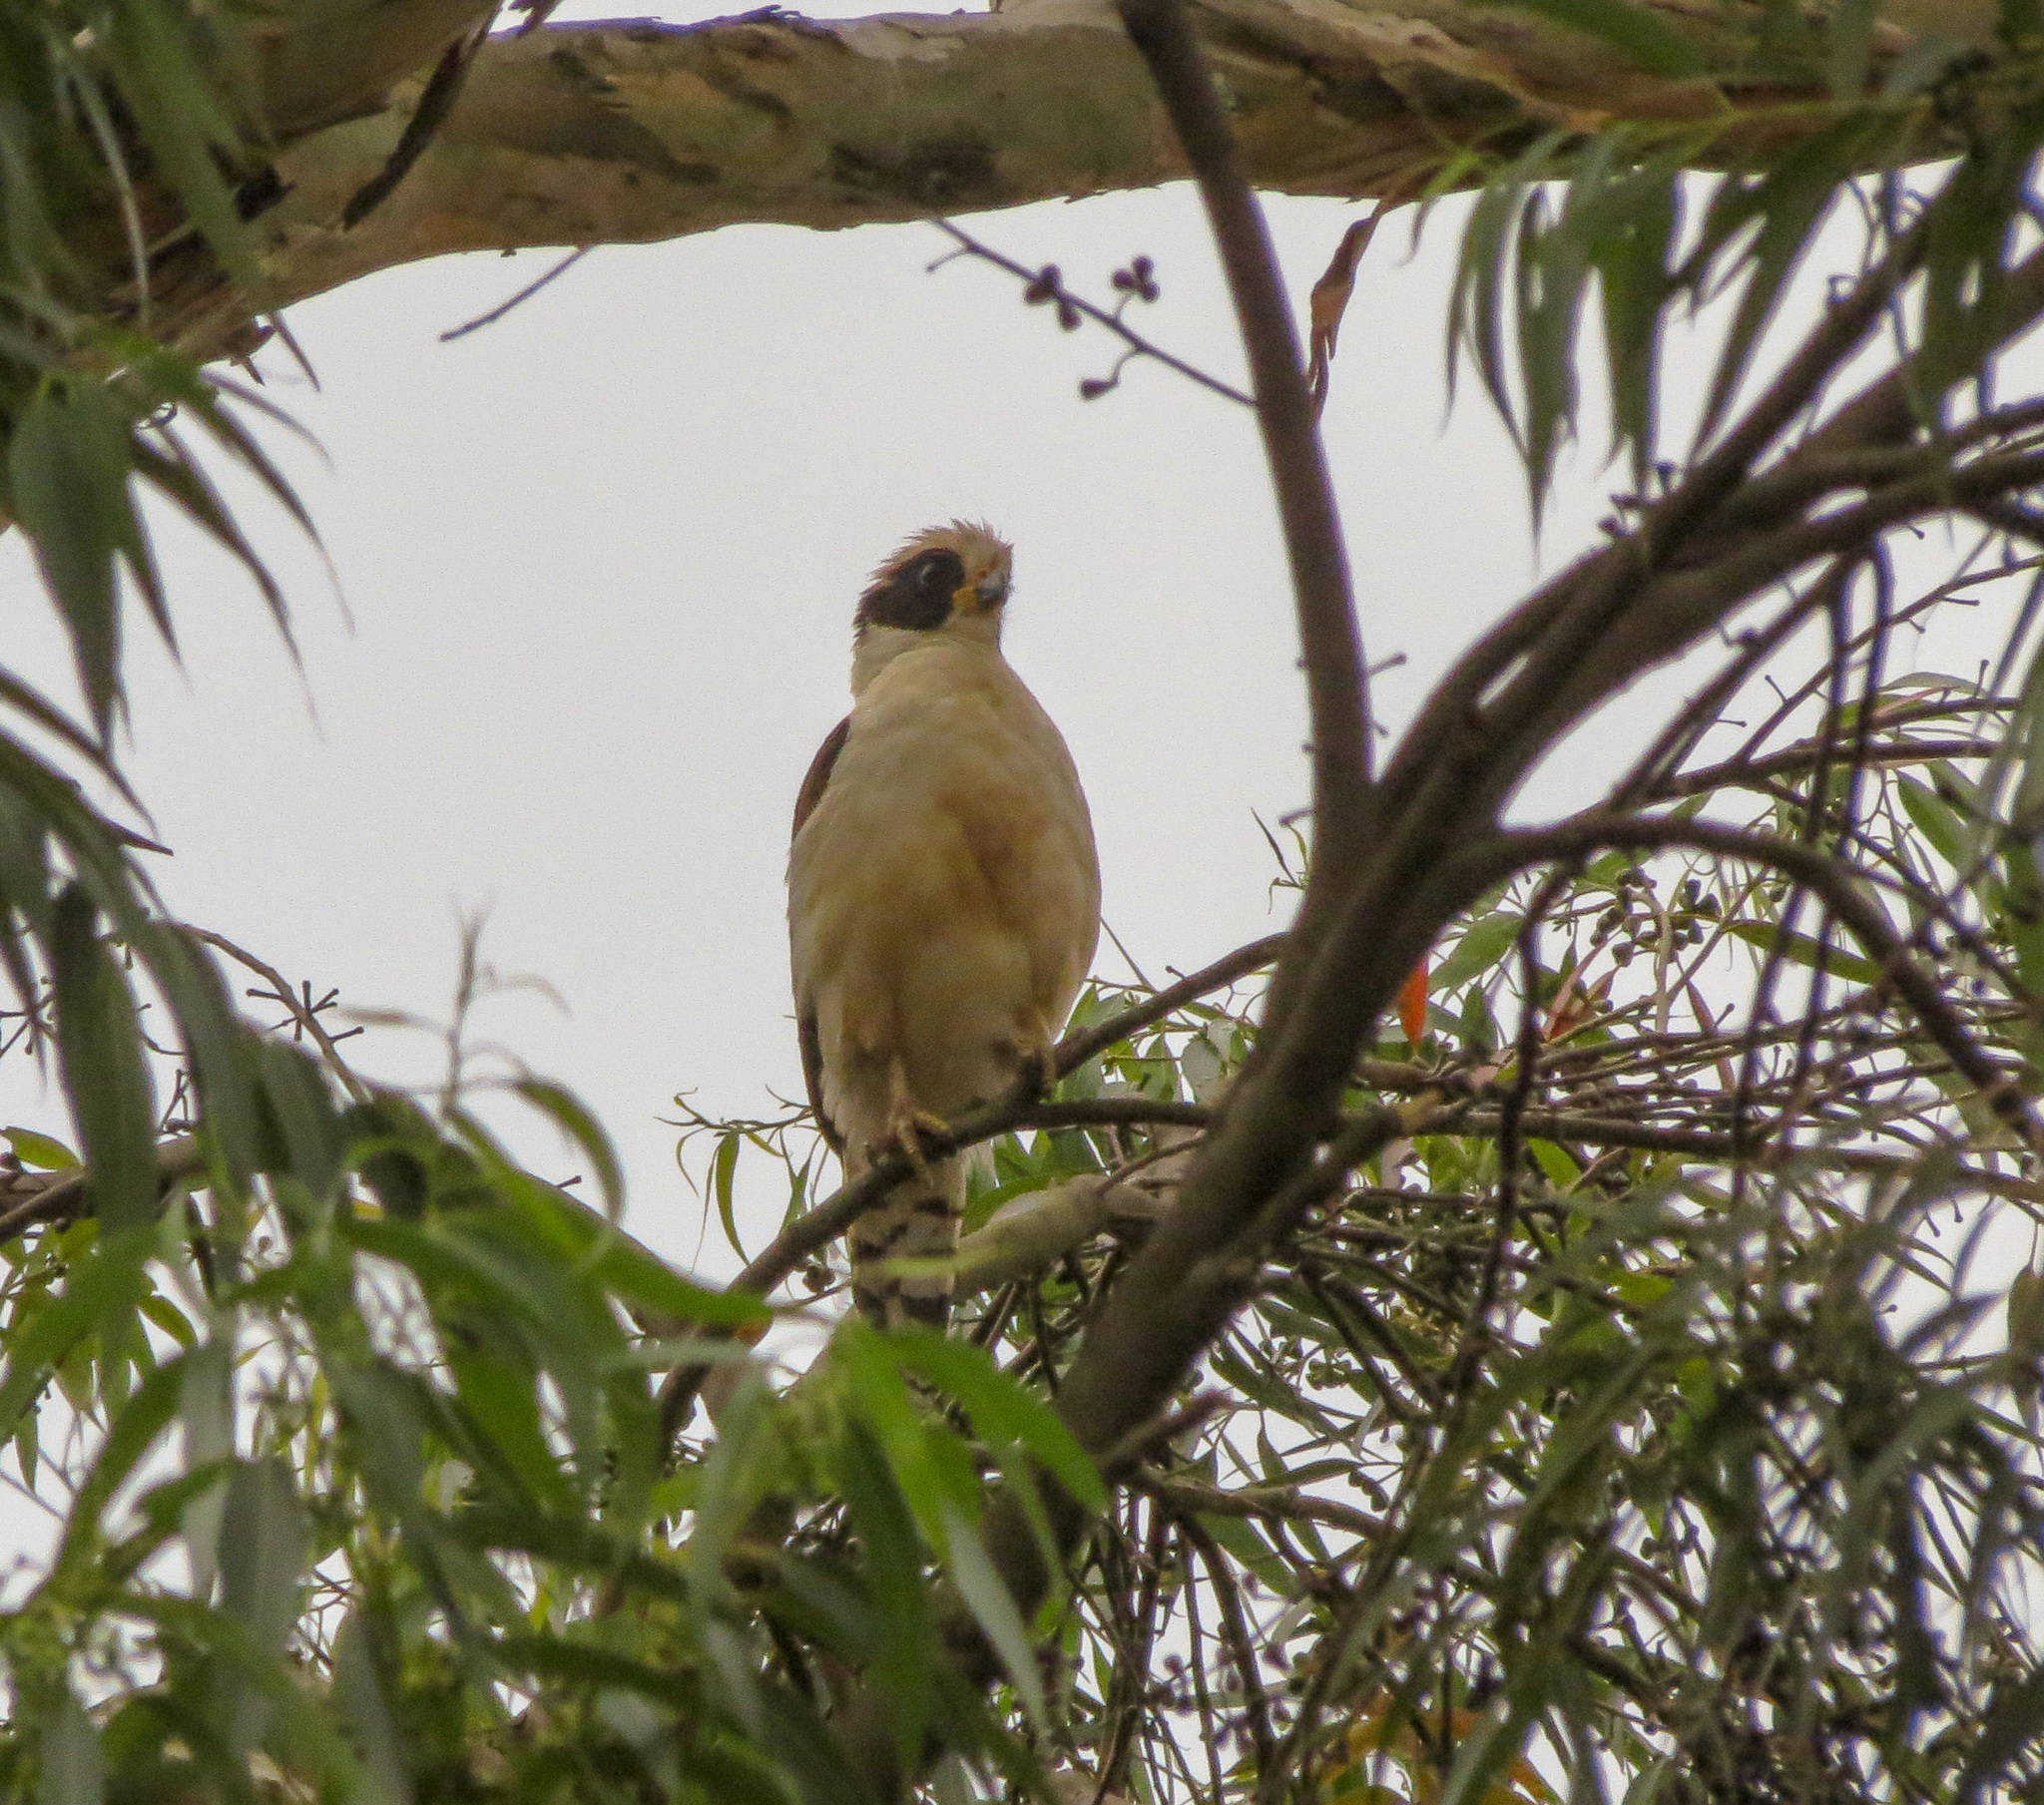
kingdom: Animalia
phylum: Chordata
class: Aves
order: Falconiformes
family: Falconidae
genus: Herpetotheres
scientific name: Herpetotheres cachinnans
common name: Laughing falcon
